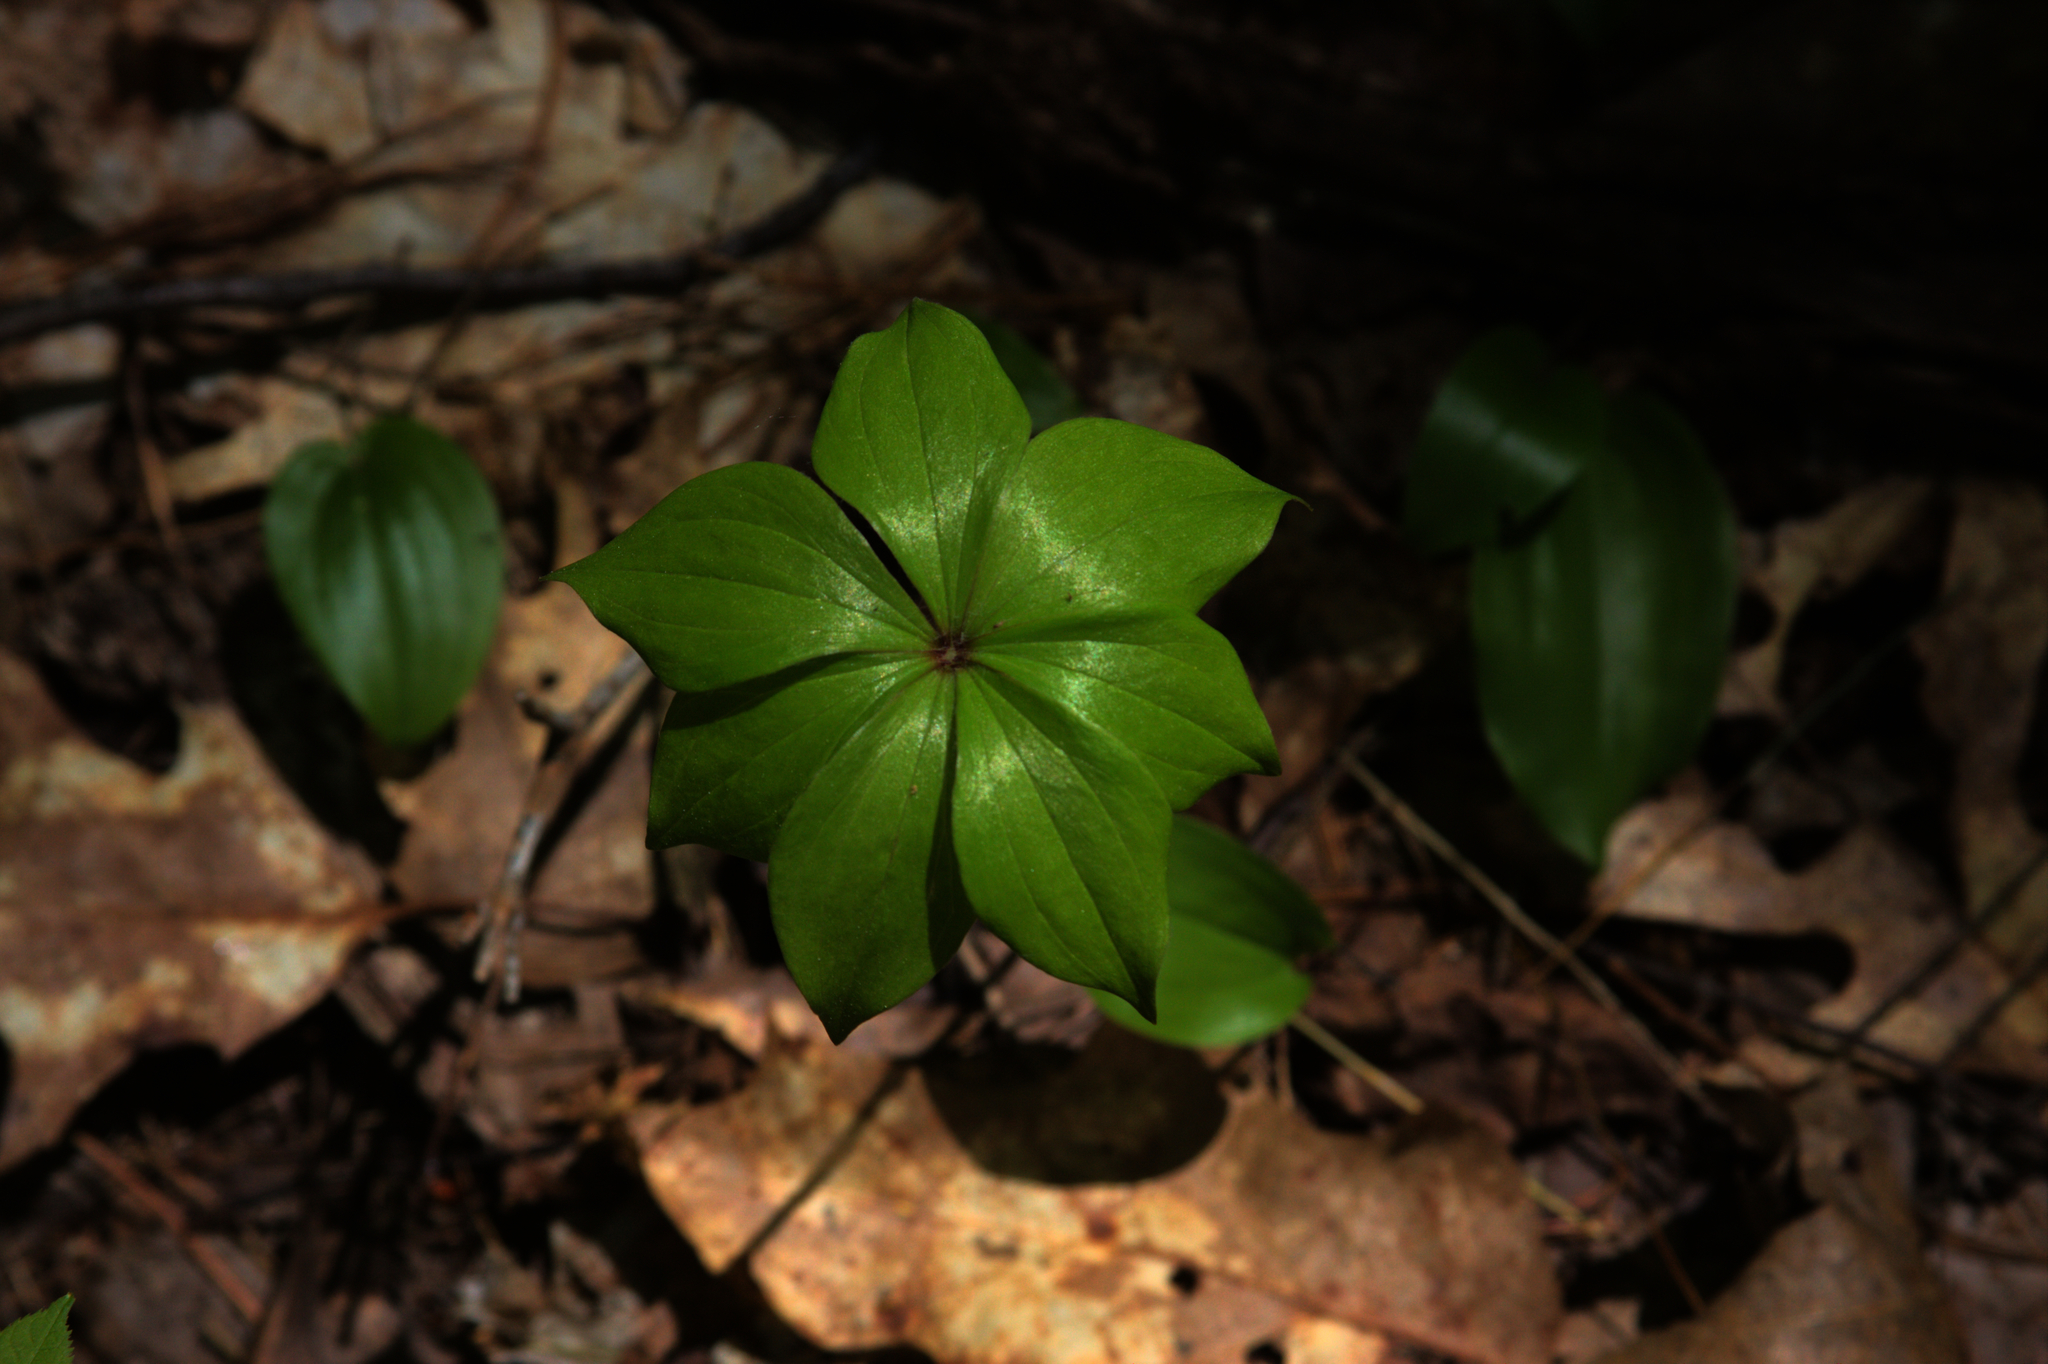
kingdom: Plantae
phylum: Tracheophyta
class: Liliopsida
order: Liliales
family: Liliaceae
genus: Medeola
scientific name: Medeola virginiana
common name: Indian cucumber-root
